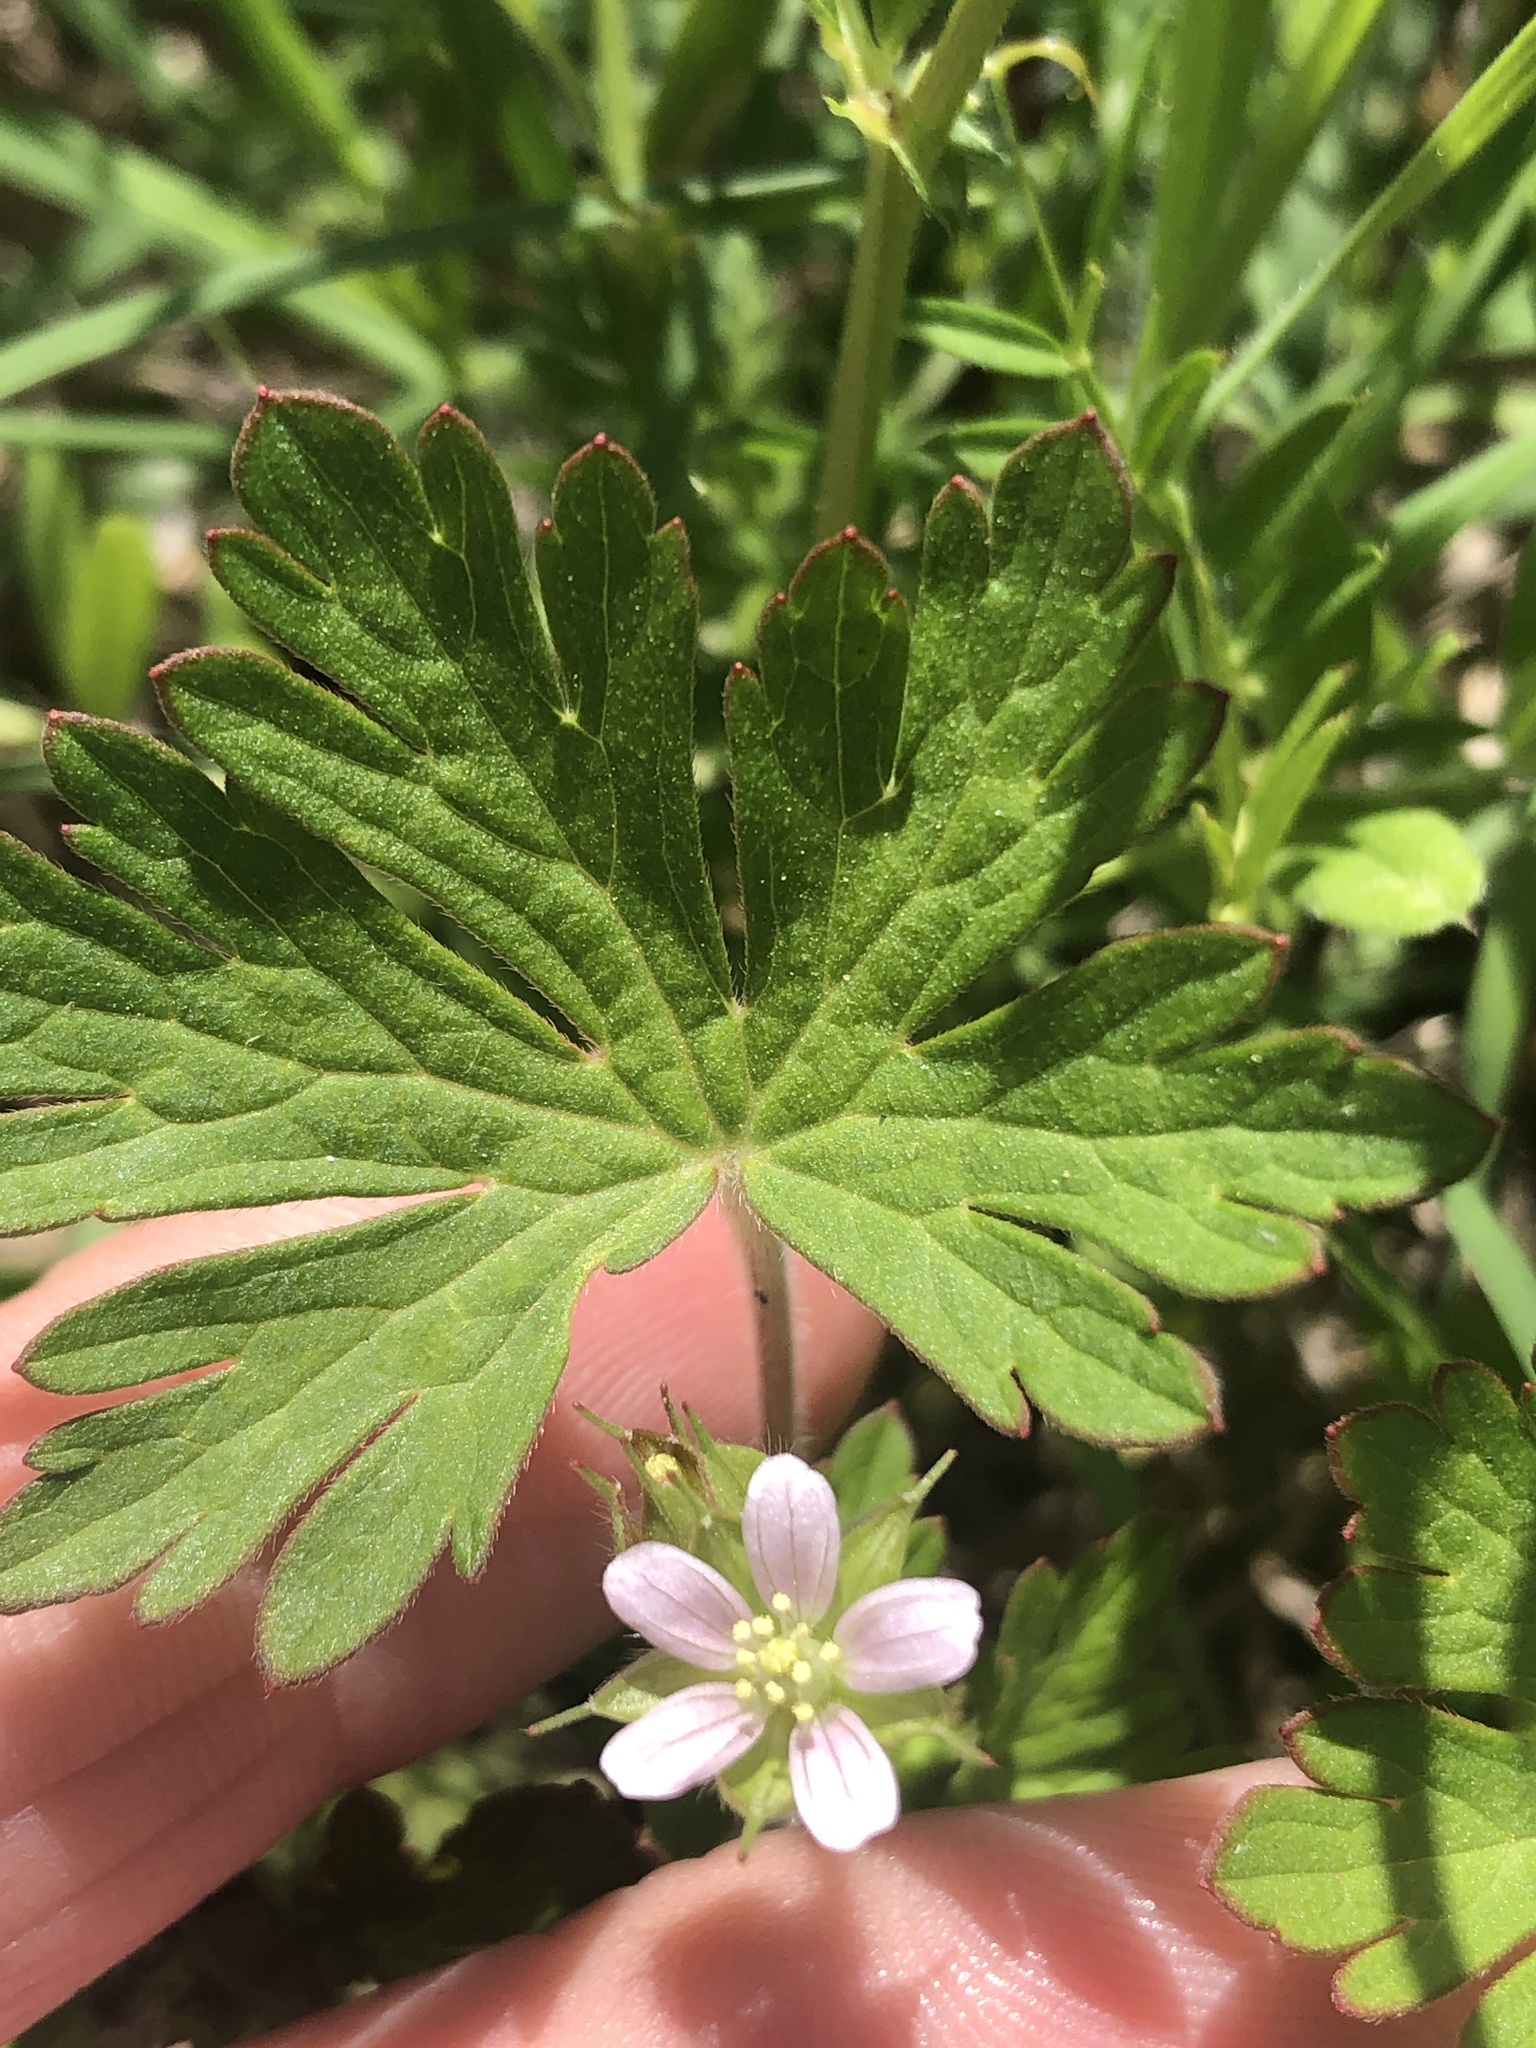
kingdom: Plantae
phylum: Tracheophyta
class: Magnoliopsida
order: Geraniales
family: Geraniaceae
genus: Geranium
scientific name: Geranium carolinianum
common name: Carolina crane's-bill
